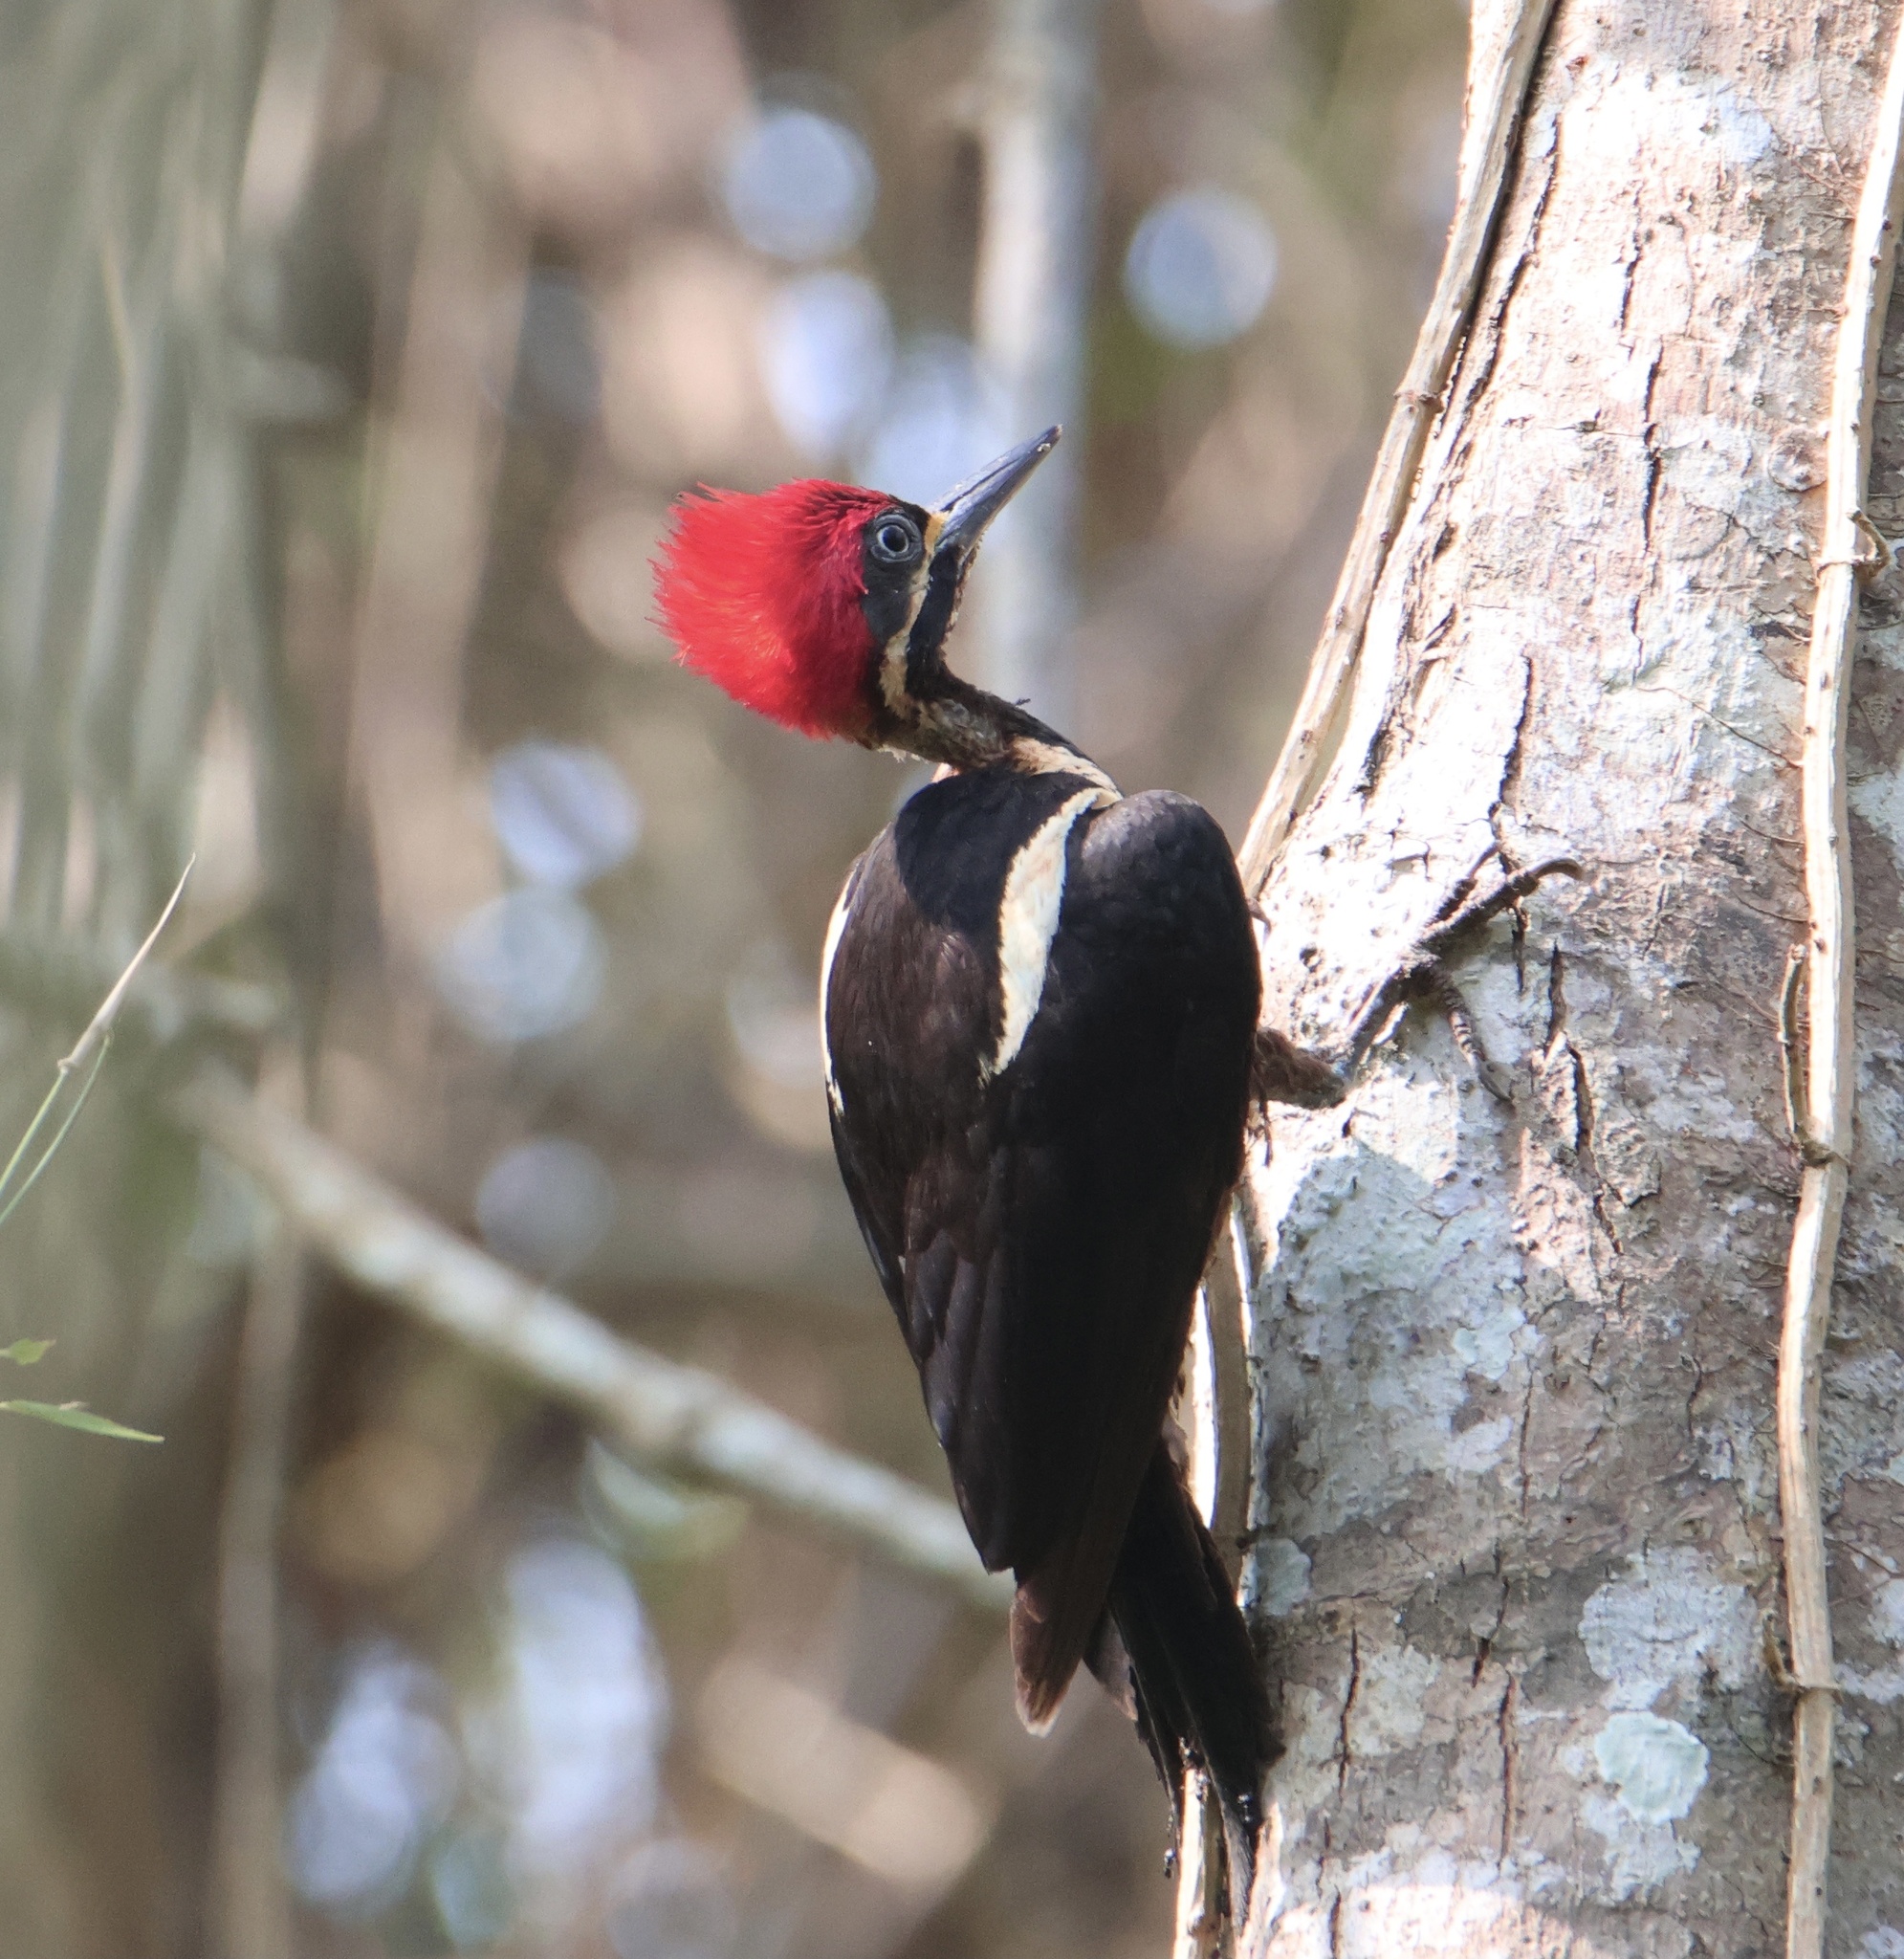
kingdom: Animalia
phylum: Chordata
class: Aves
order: Piciformes
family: Picidae
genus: Dryocopus
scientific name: Dryocopus lineatus
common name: Lineated woodpecker
